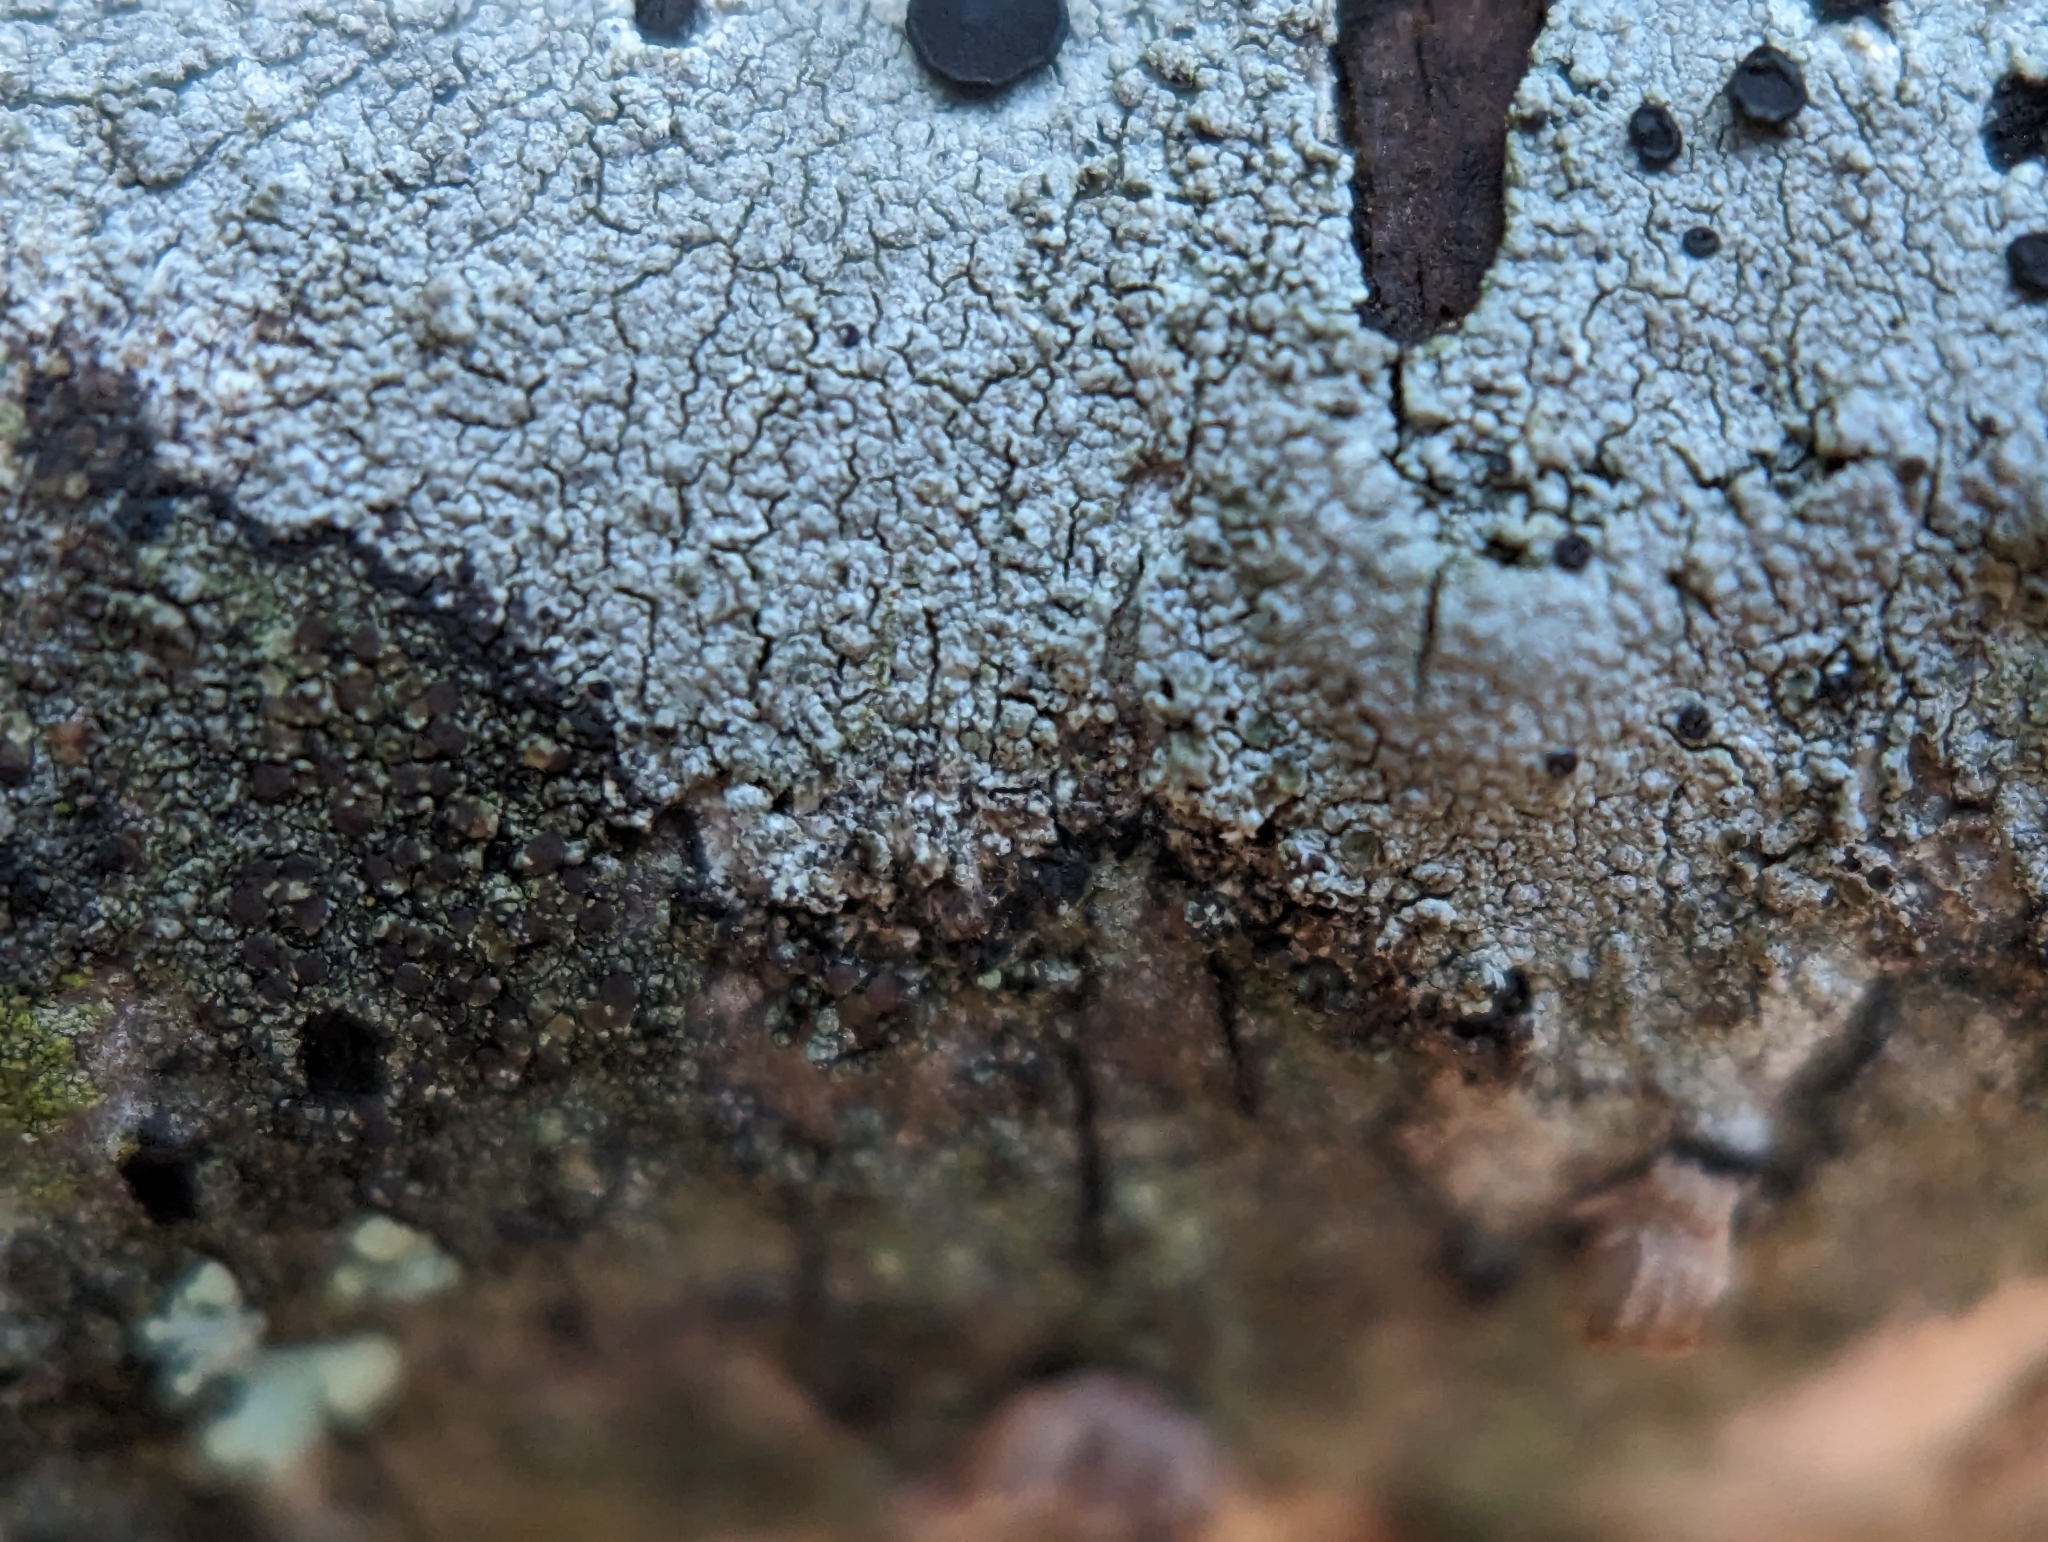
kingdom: Fungi
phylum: Ascomycota
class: Lecanoromycetes
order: Caliciales
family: Caliciaceae
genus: Buellia
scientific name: Buellia erubescens
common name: Common button lichen
